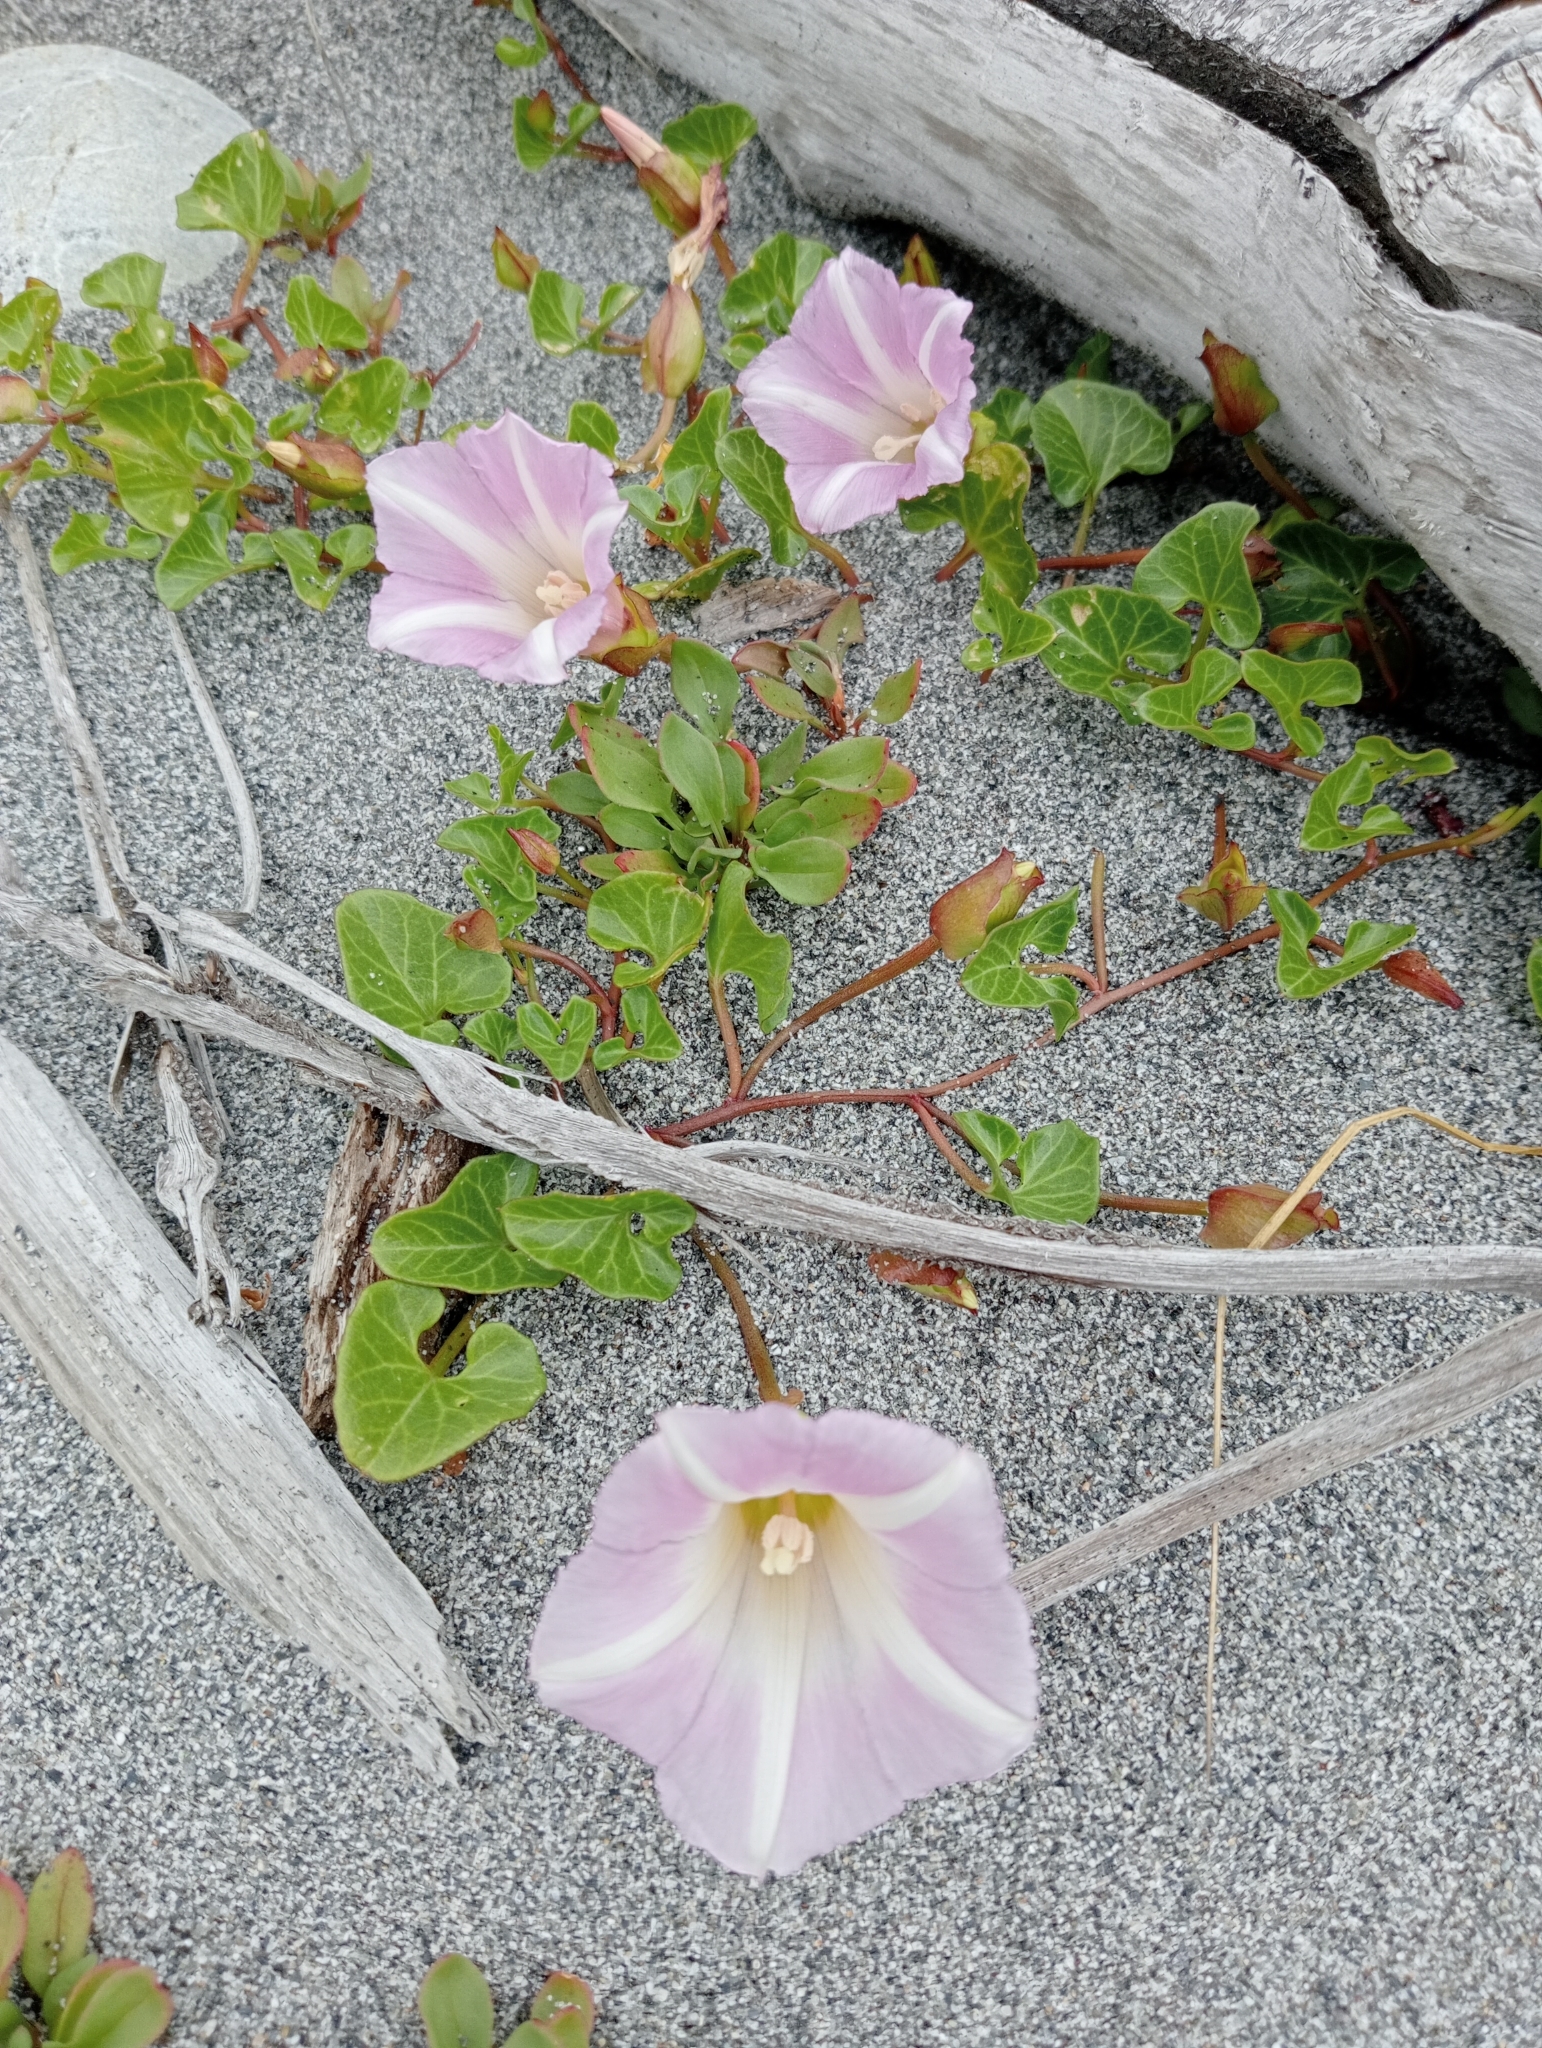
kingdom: Plantae
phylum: Tracheophyta
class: Magnoliopsida
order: Solanales
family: Convolvulaceae
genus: Calystegia
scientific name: Calystegia soldanella
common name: Sea bindweed
